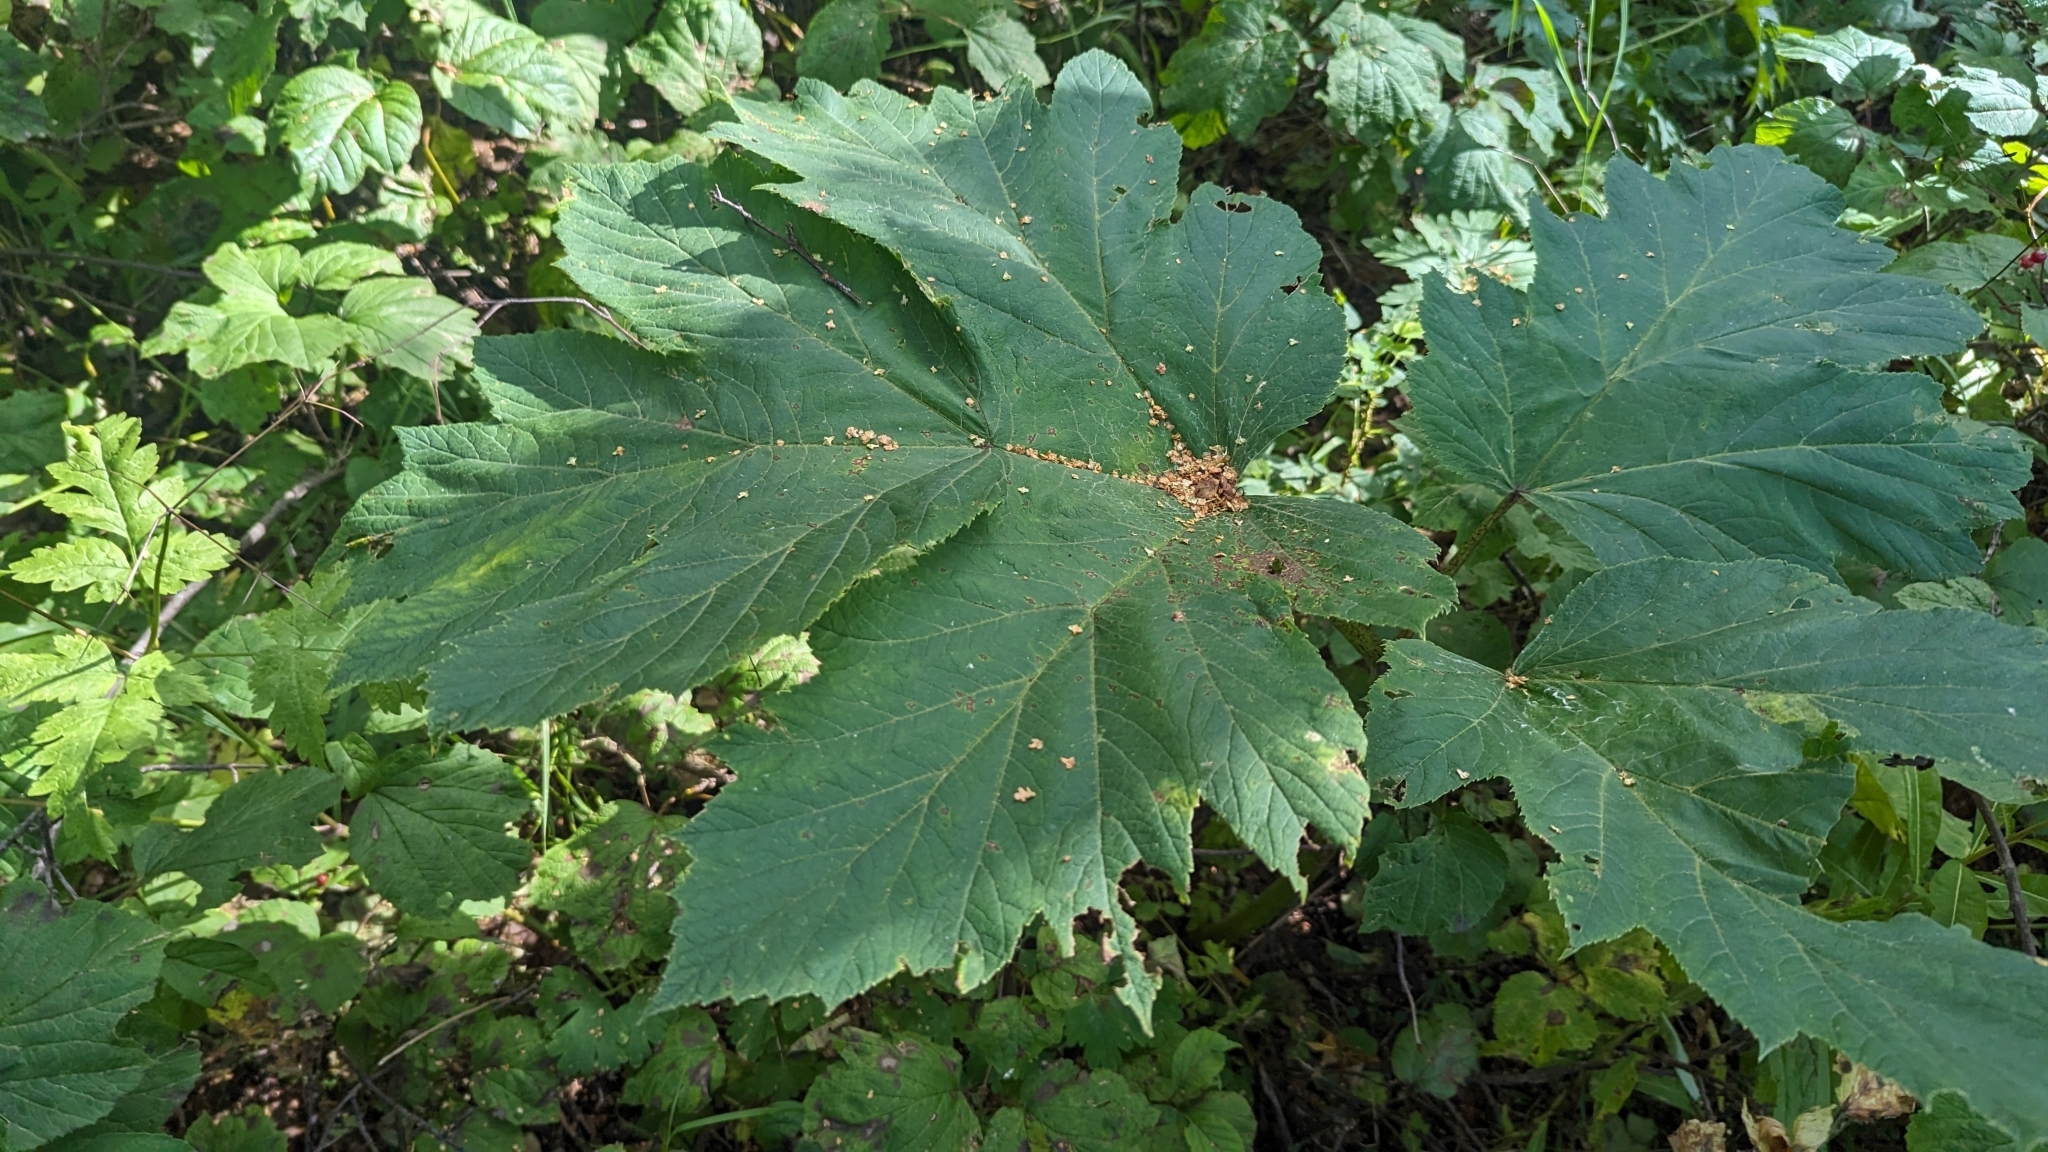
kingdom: Plantae
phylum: Tracheophyta
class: Magnoliopsida
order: Apiales
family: Apiaceae
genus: Heracleum
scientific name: Heracleum maximum
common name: American cow parsnip
